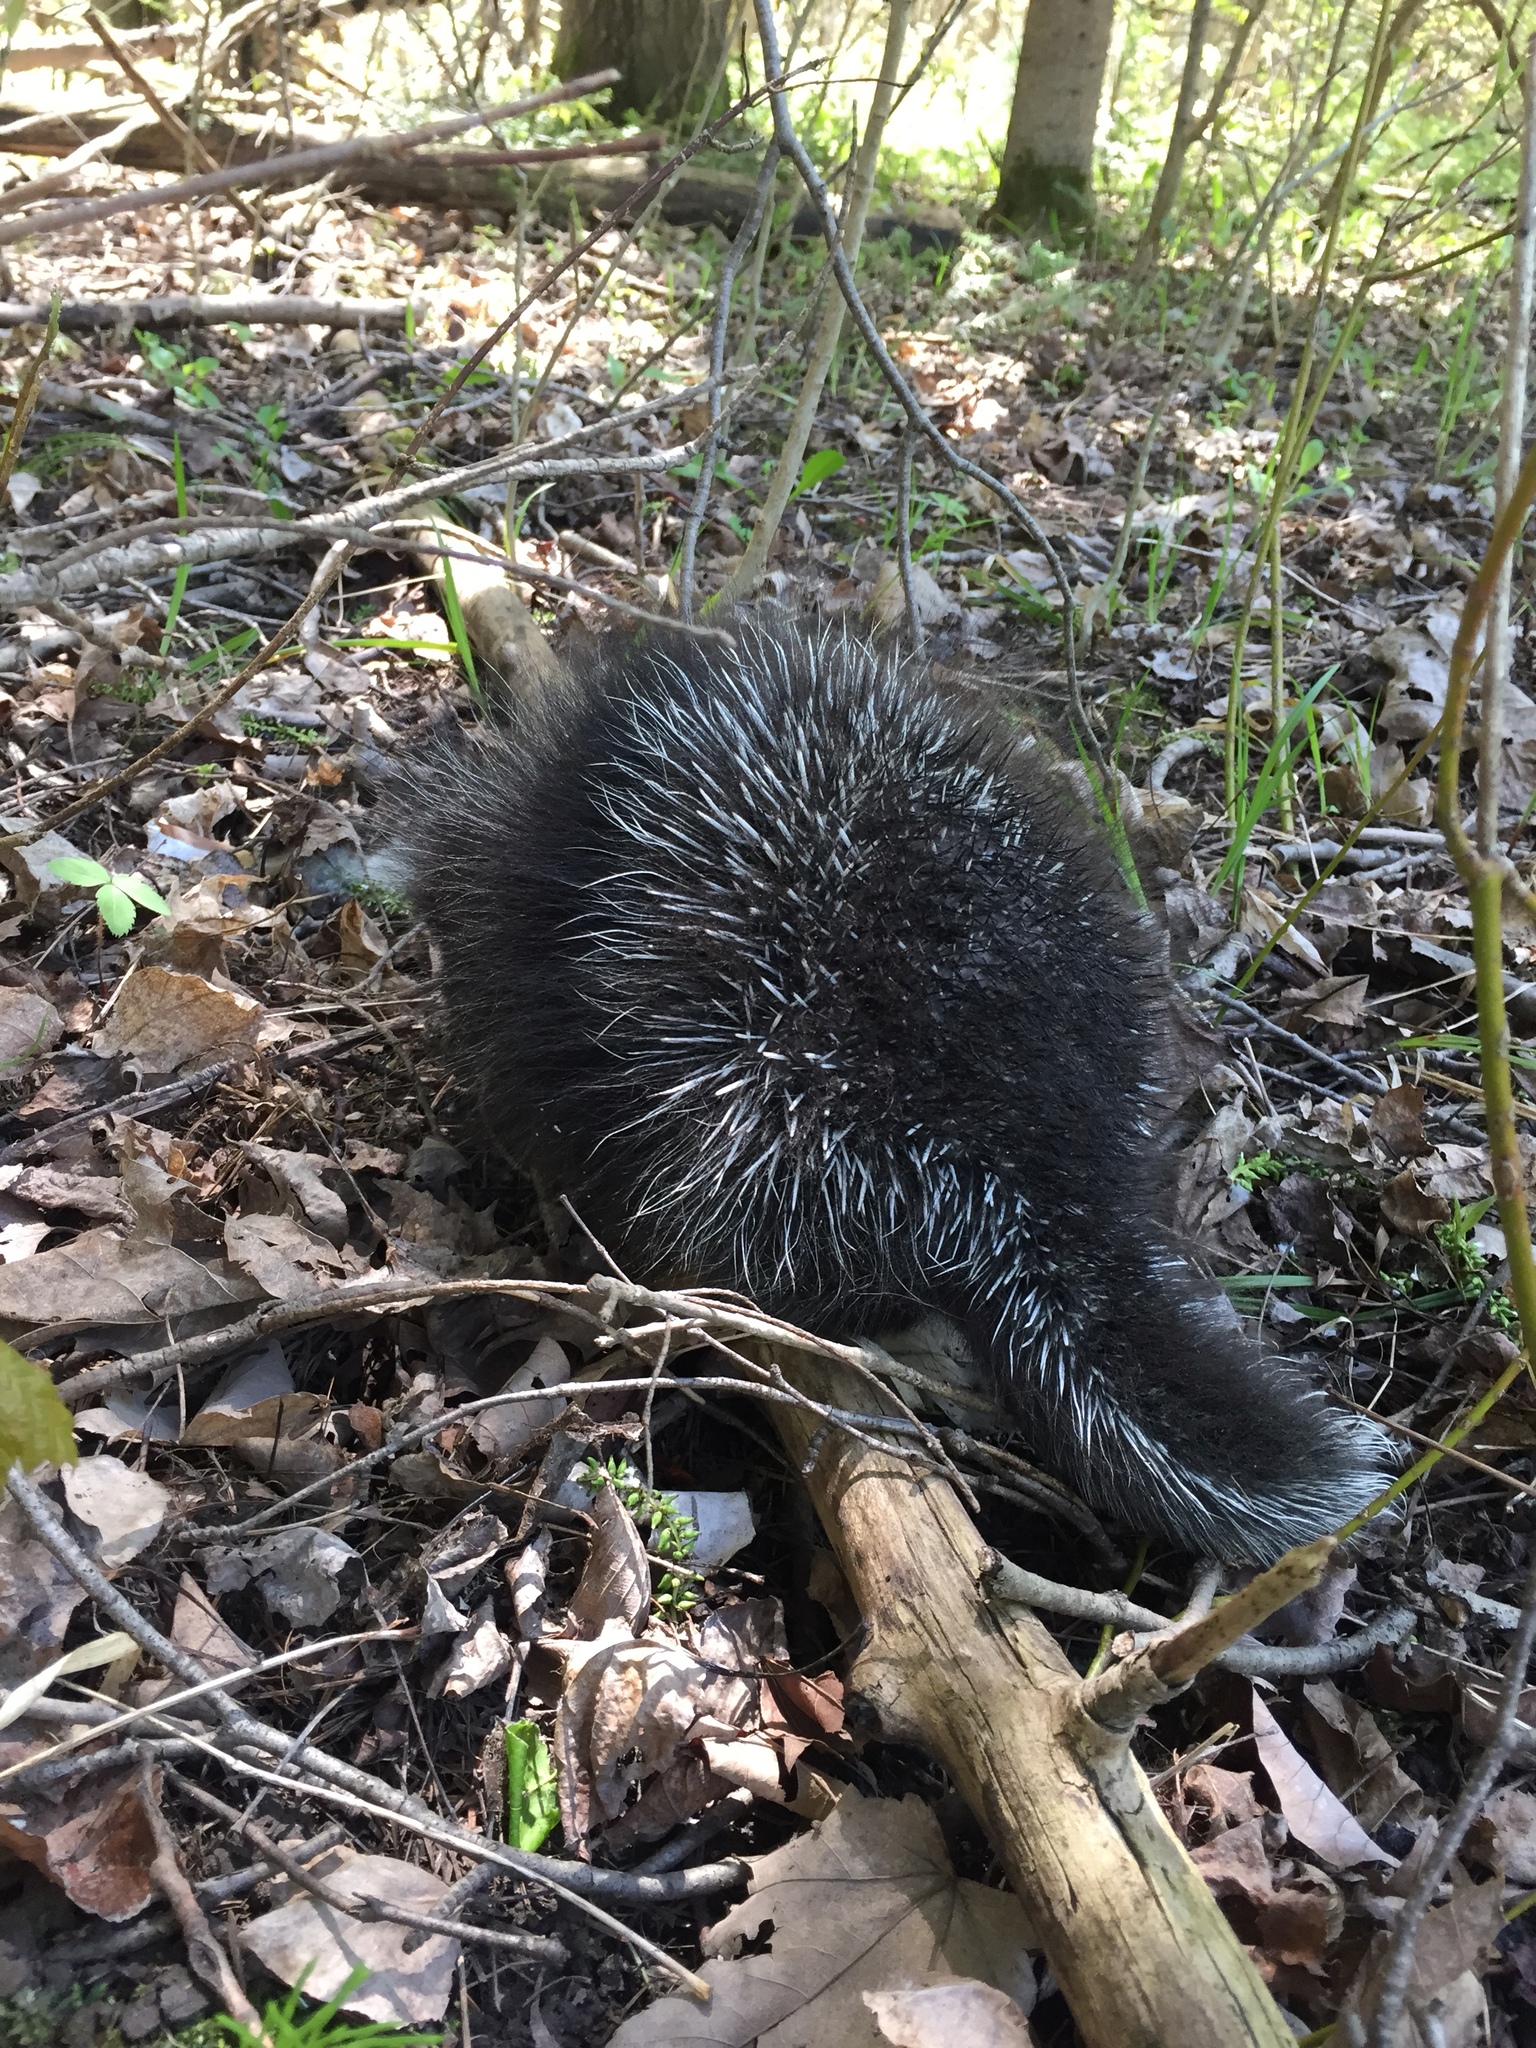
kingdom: Animalia
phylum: Chordata
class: Mammalia
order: Rodentia
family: Erethizontidae
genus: Erethizon
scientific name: Erethizon dorsatus
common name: North american porcupine
